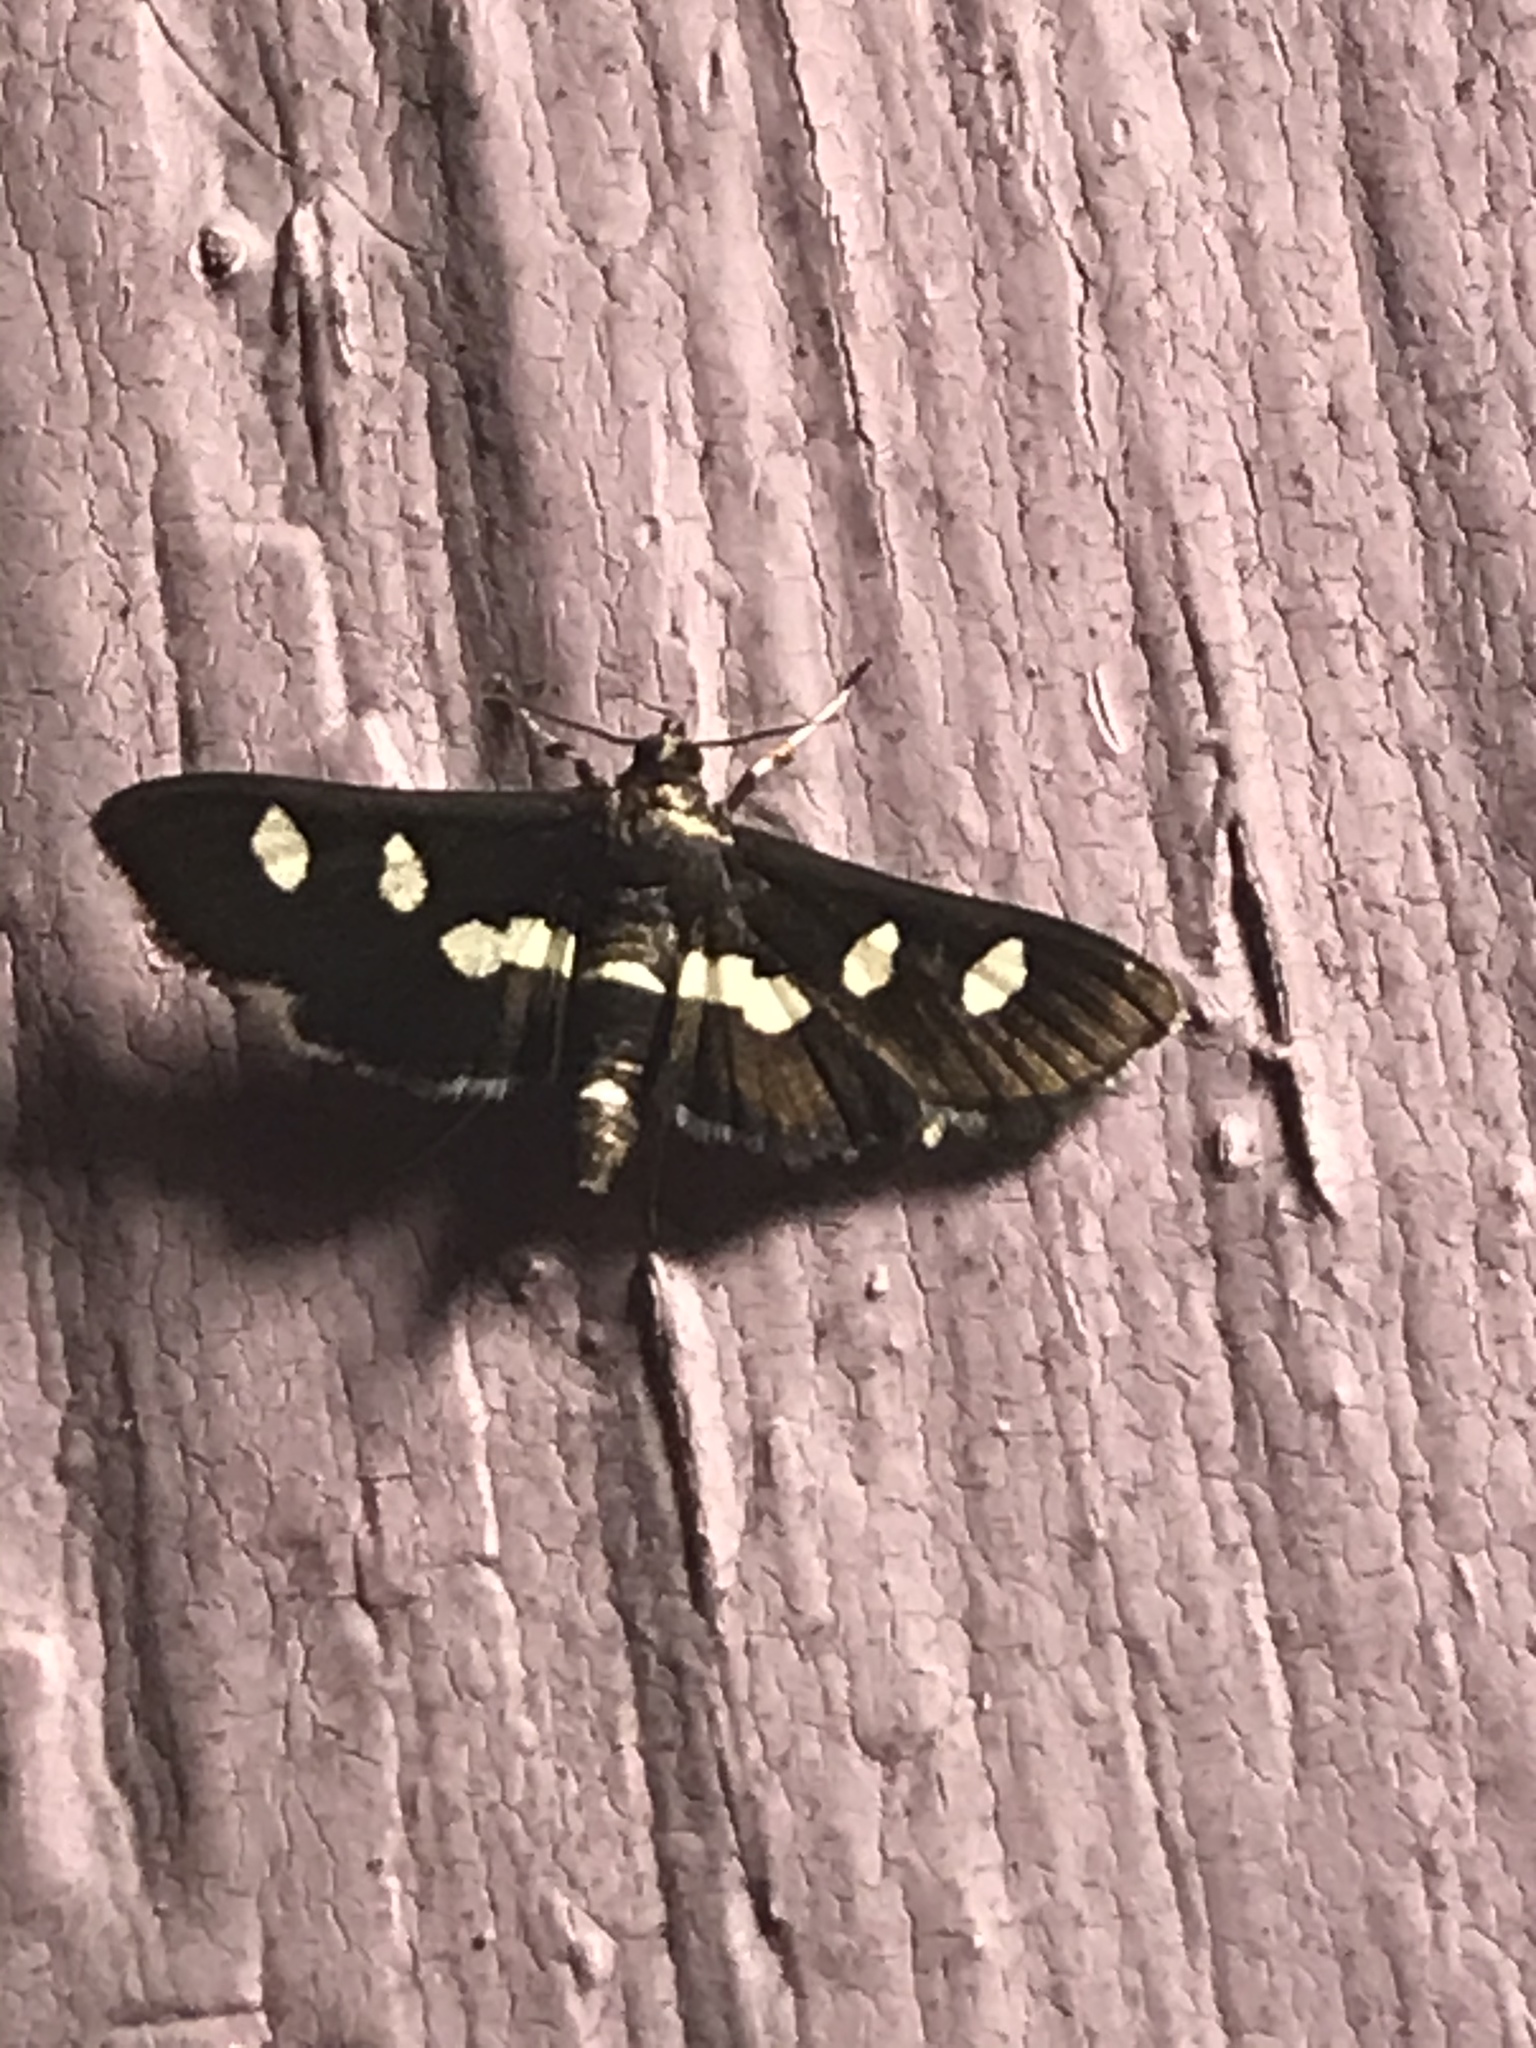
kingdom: Animalia
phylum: Arthropoda
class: Insecta
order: Lepidoptera
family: Crambidae
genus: Desmia
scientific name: Desmia
